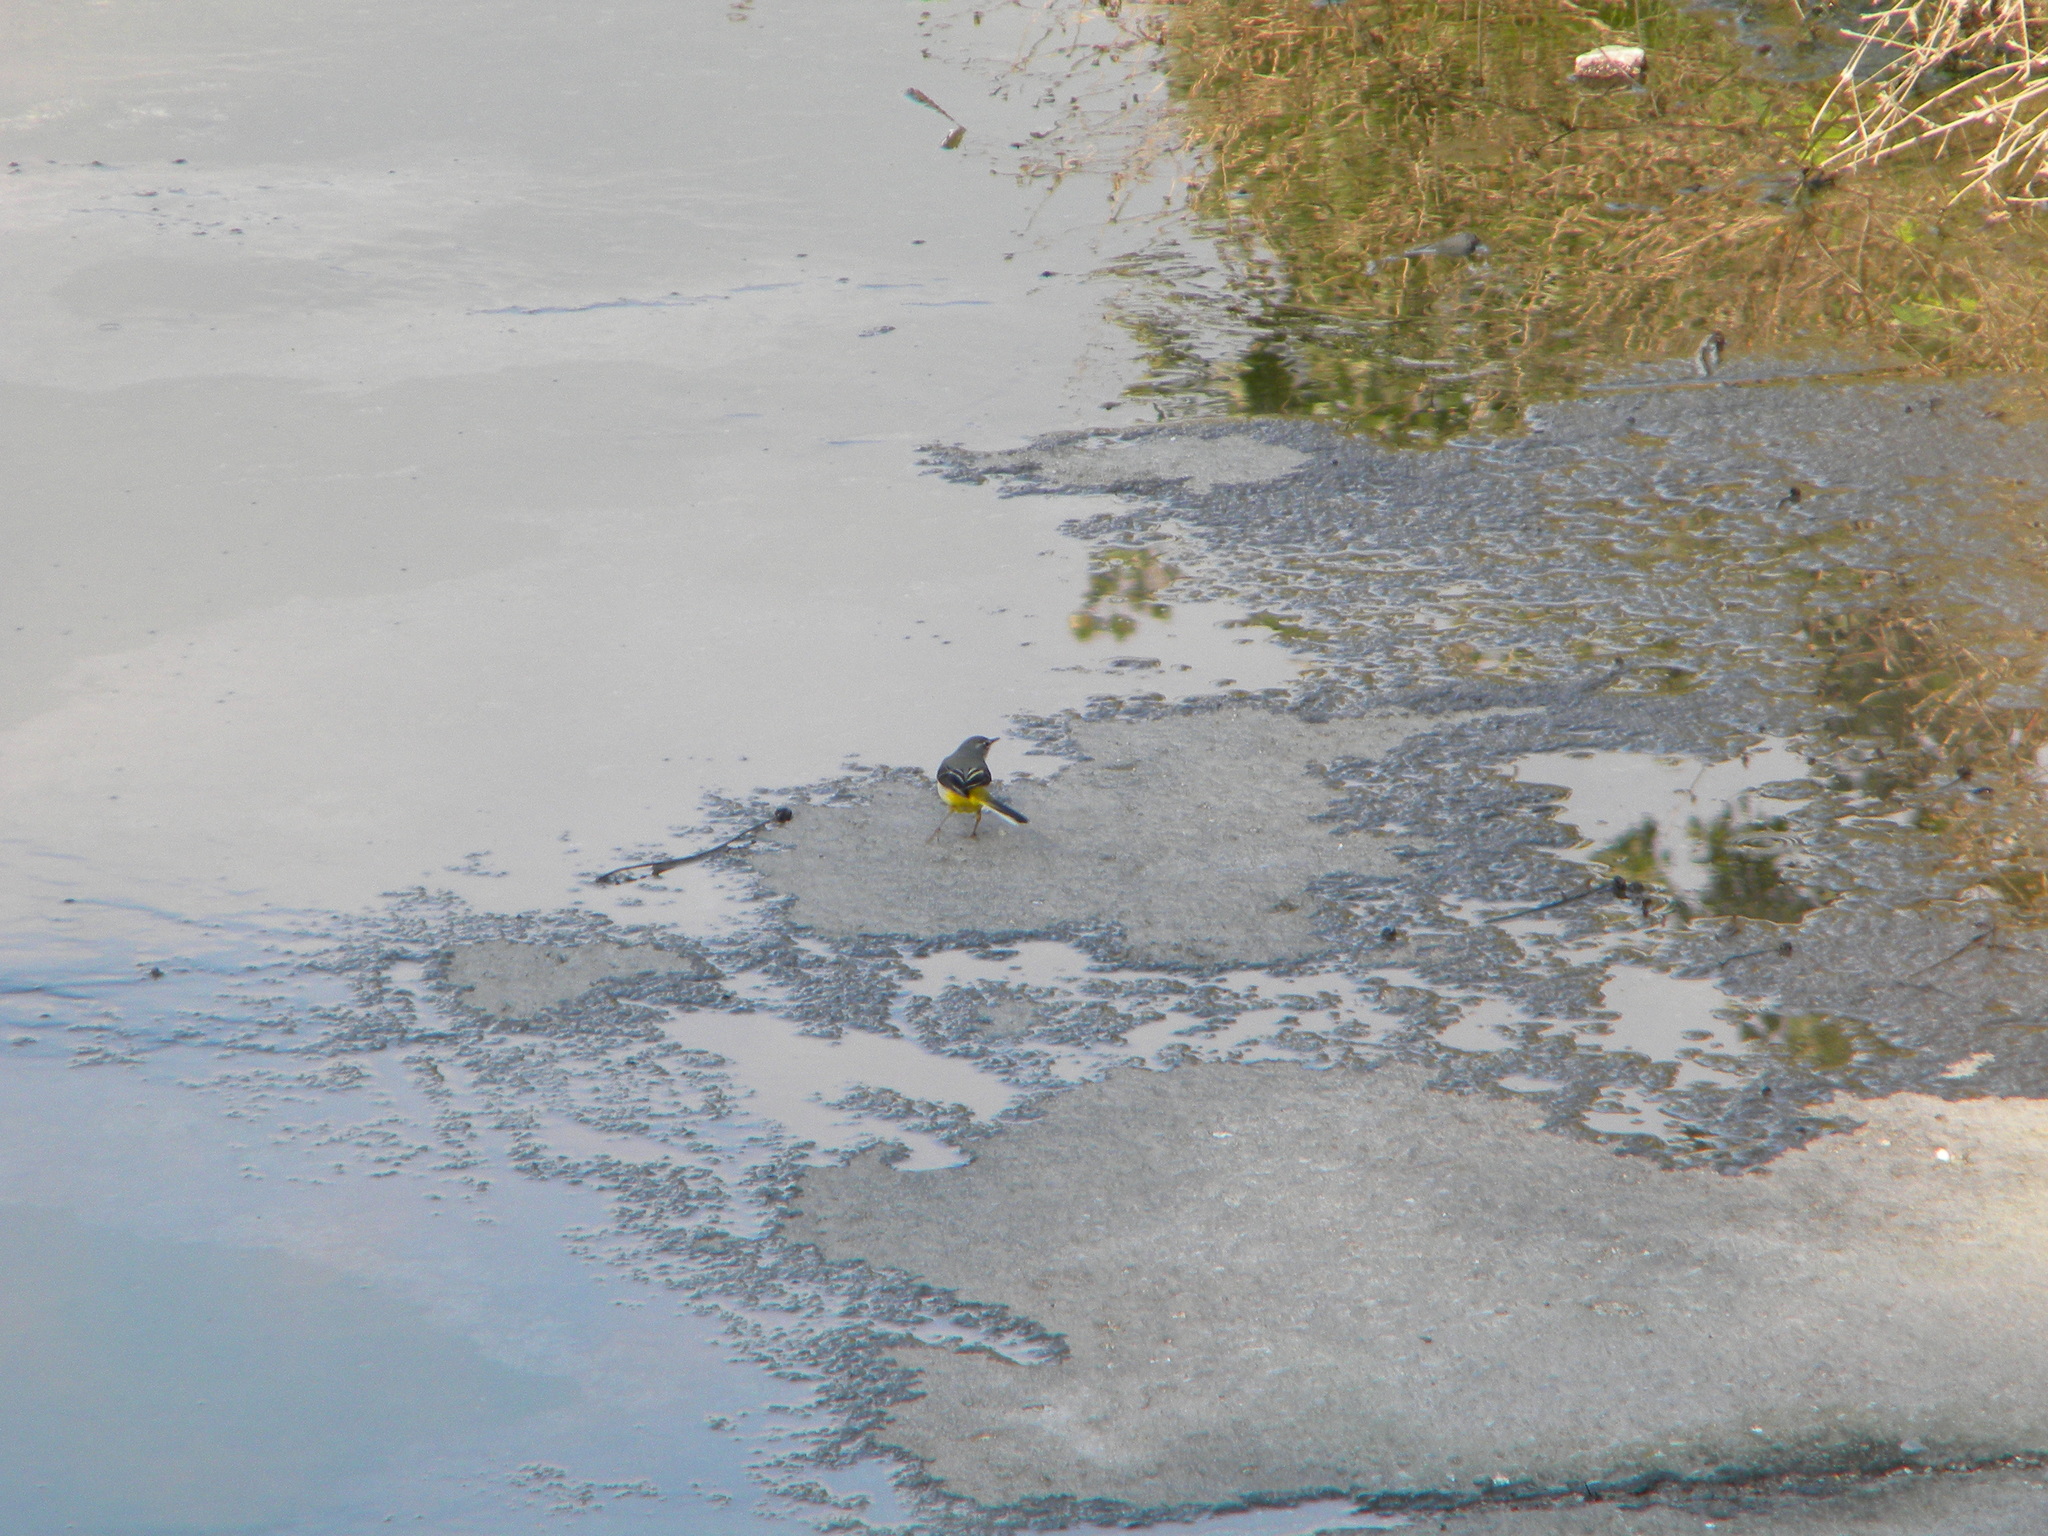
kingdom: Animalia
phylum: Chordata
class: Aves
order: Passeriformes
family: Motacillidae
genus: Motacilla
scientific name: Motacilla cinerea
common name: Grey wagtail
